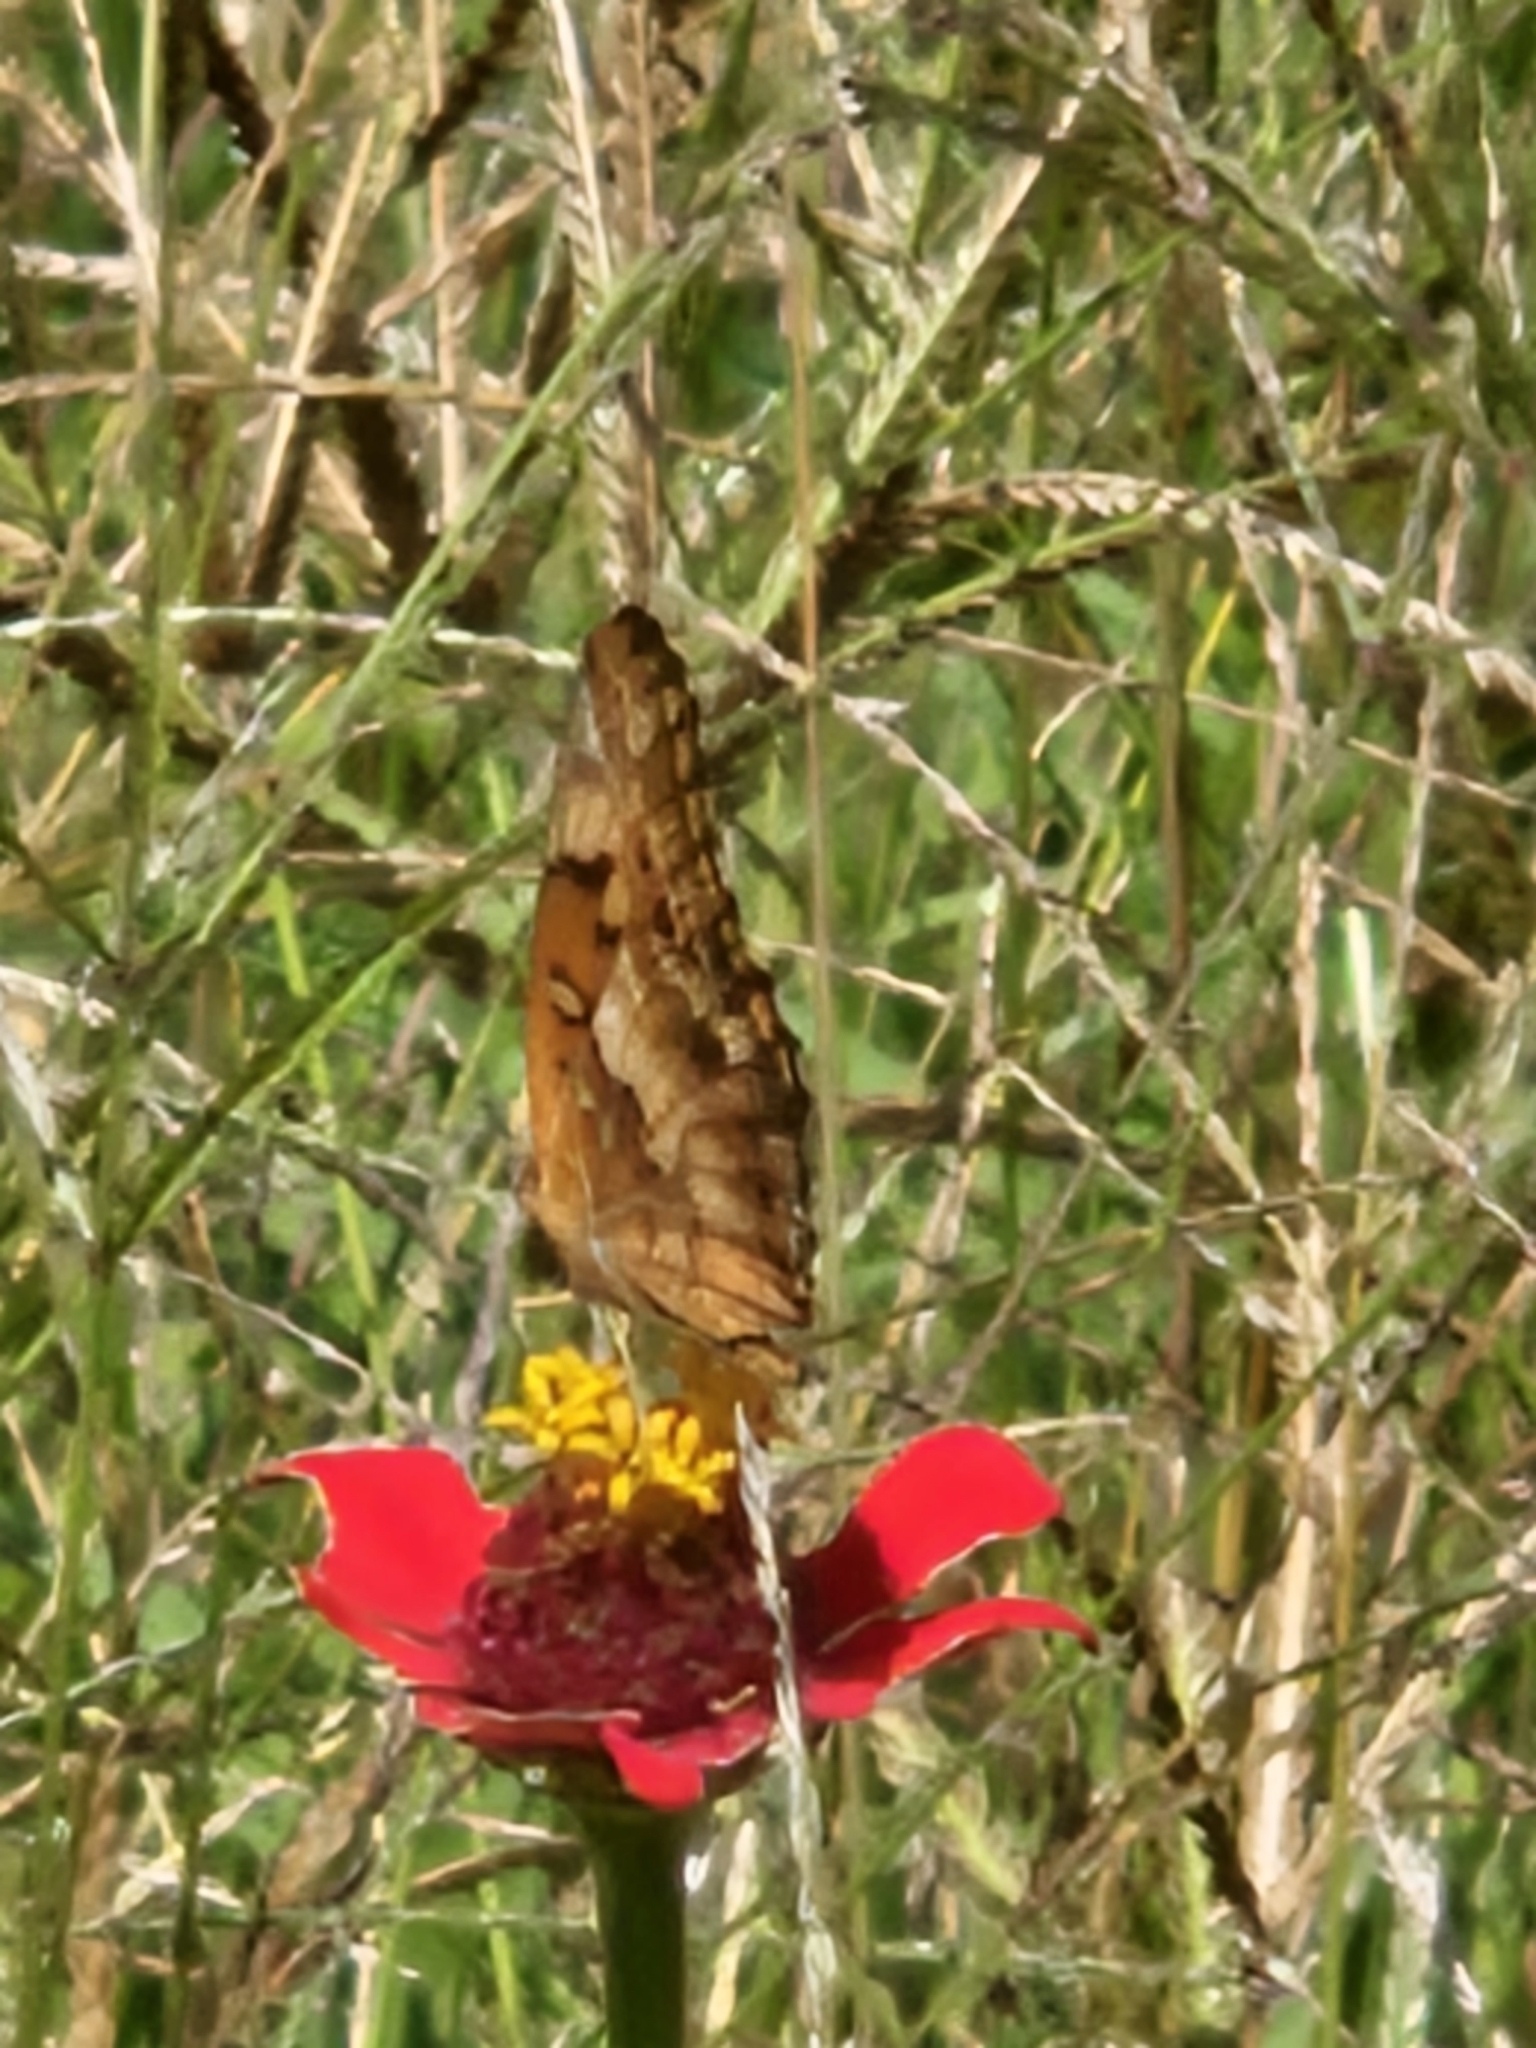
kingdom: Animalia
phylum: Arthropoda
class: Insecta
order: Lepidoptera
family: Nymphalidae
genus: Euptoieta
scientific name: Euptoieta claudia
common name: Variegated fritillary
